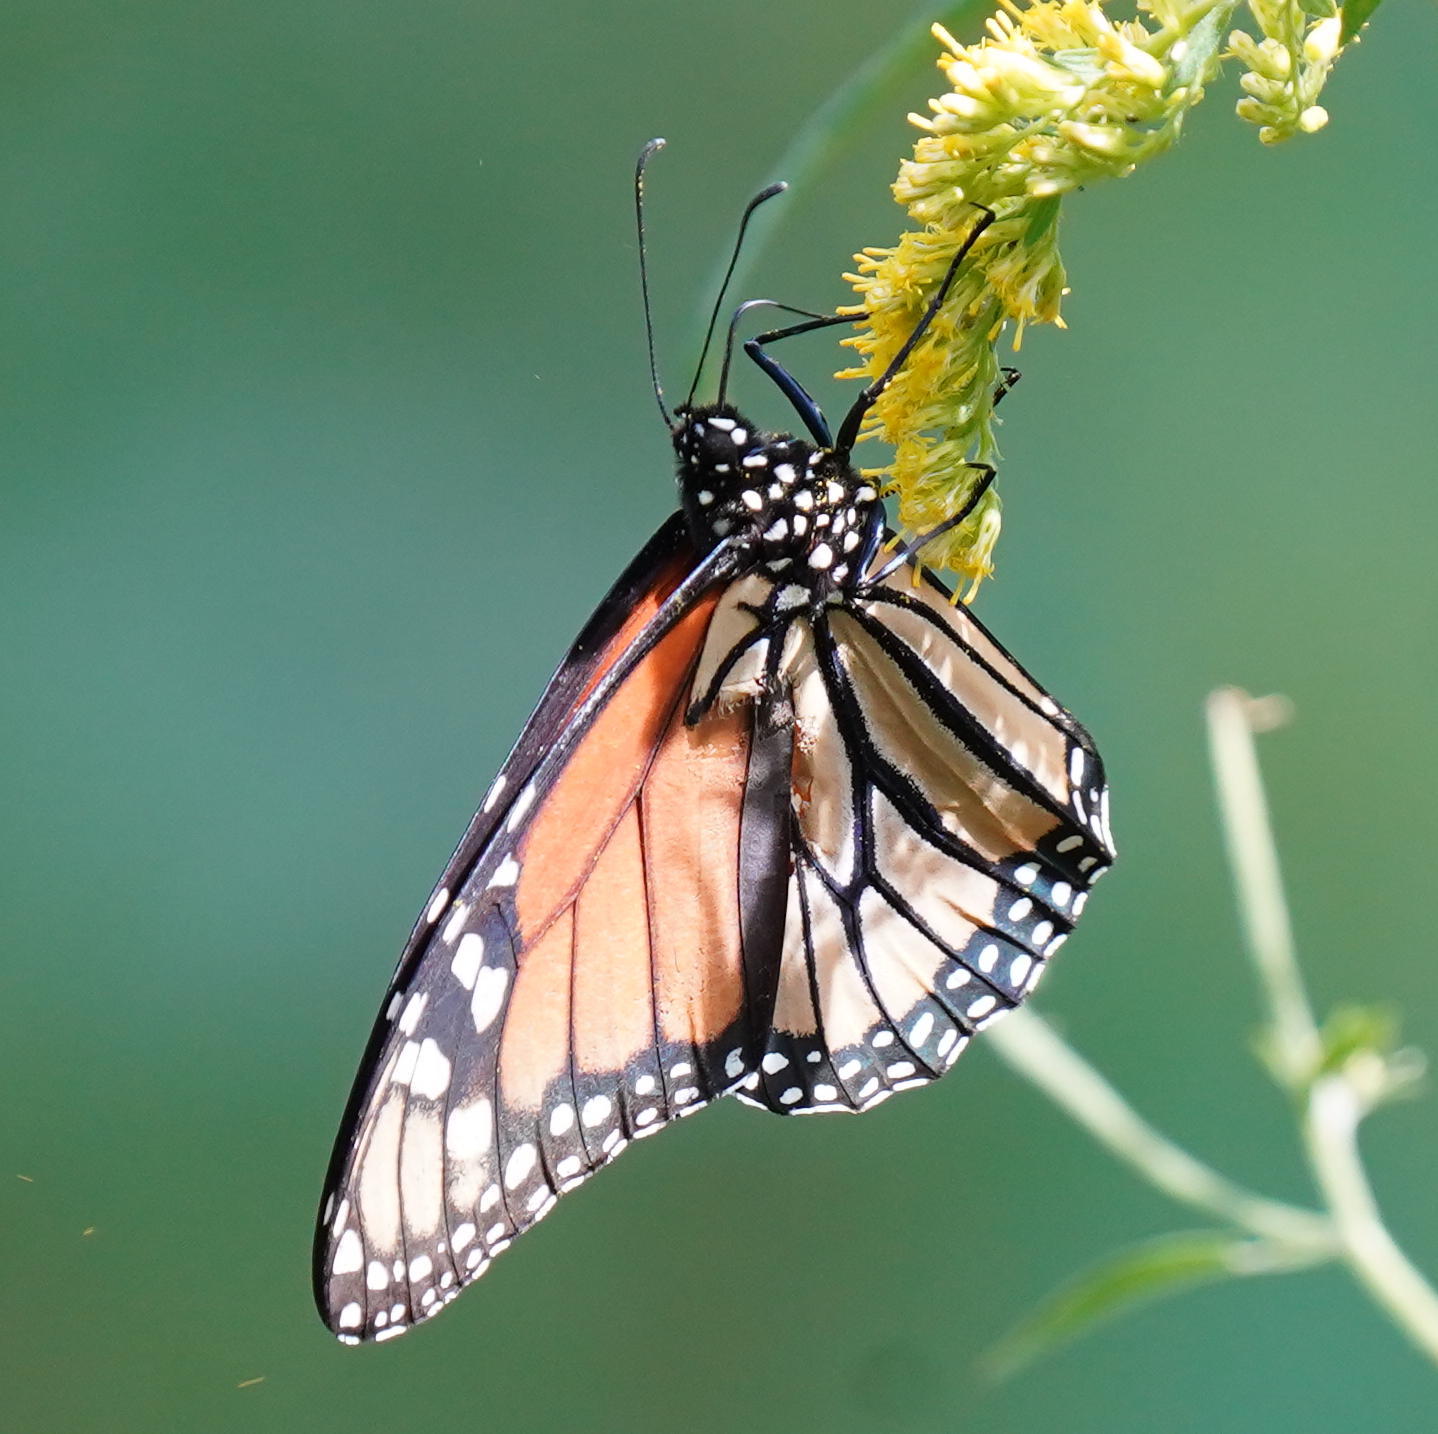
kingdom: Animalia
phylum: Arthropoda
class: Insecta
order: Lepidoptera
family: Nymphalidae
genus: Danaus
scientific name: Danaus plexippus
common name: Monarch
